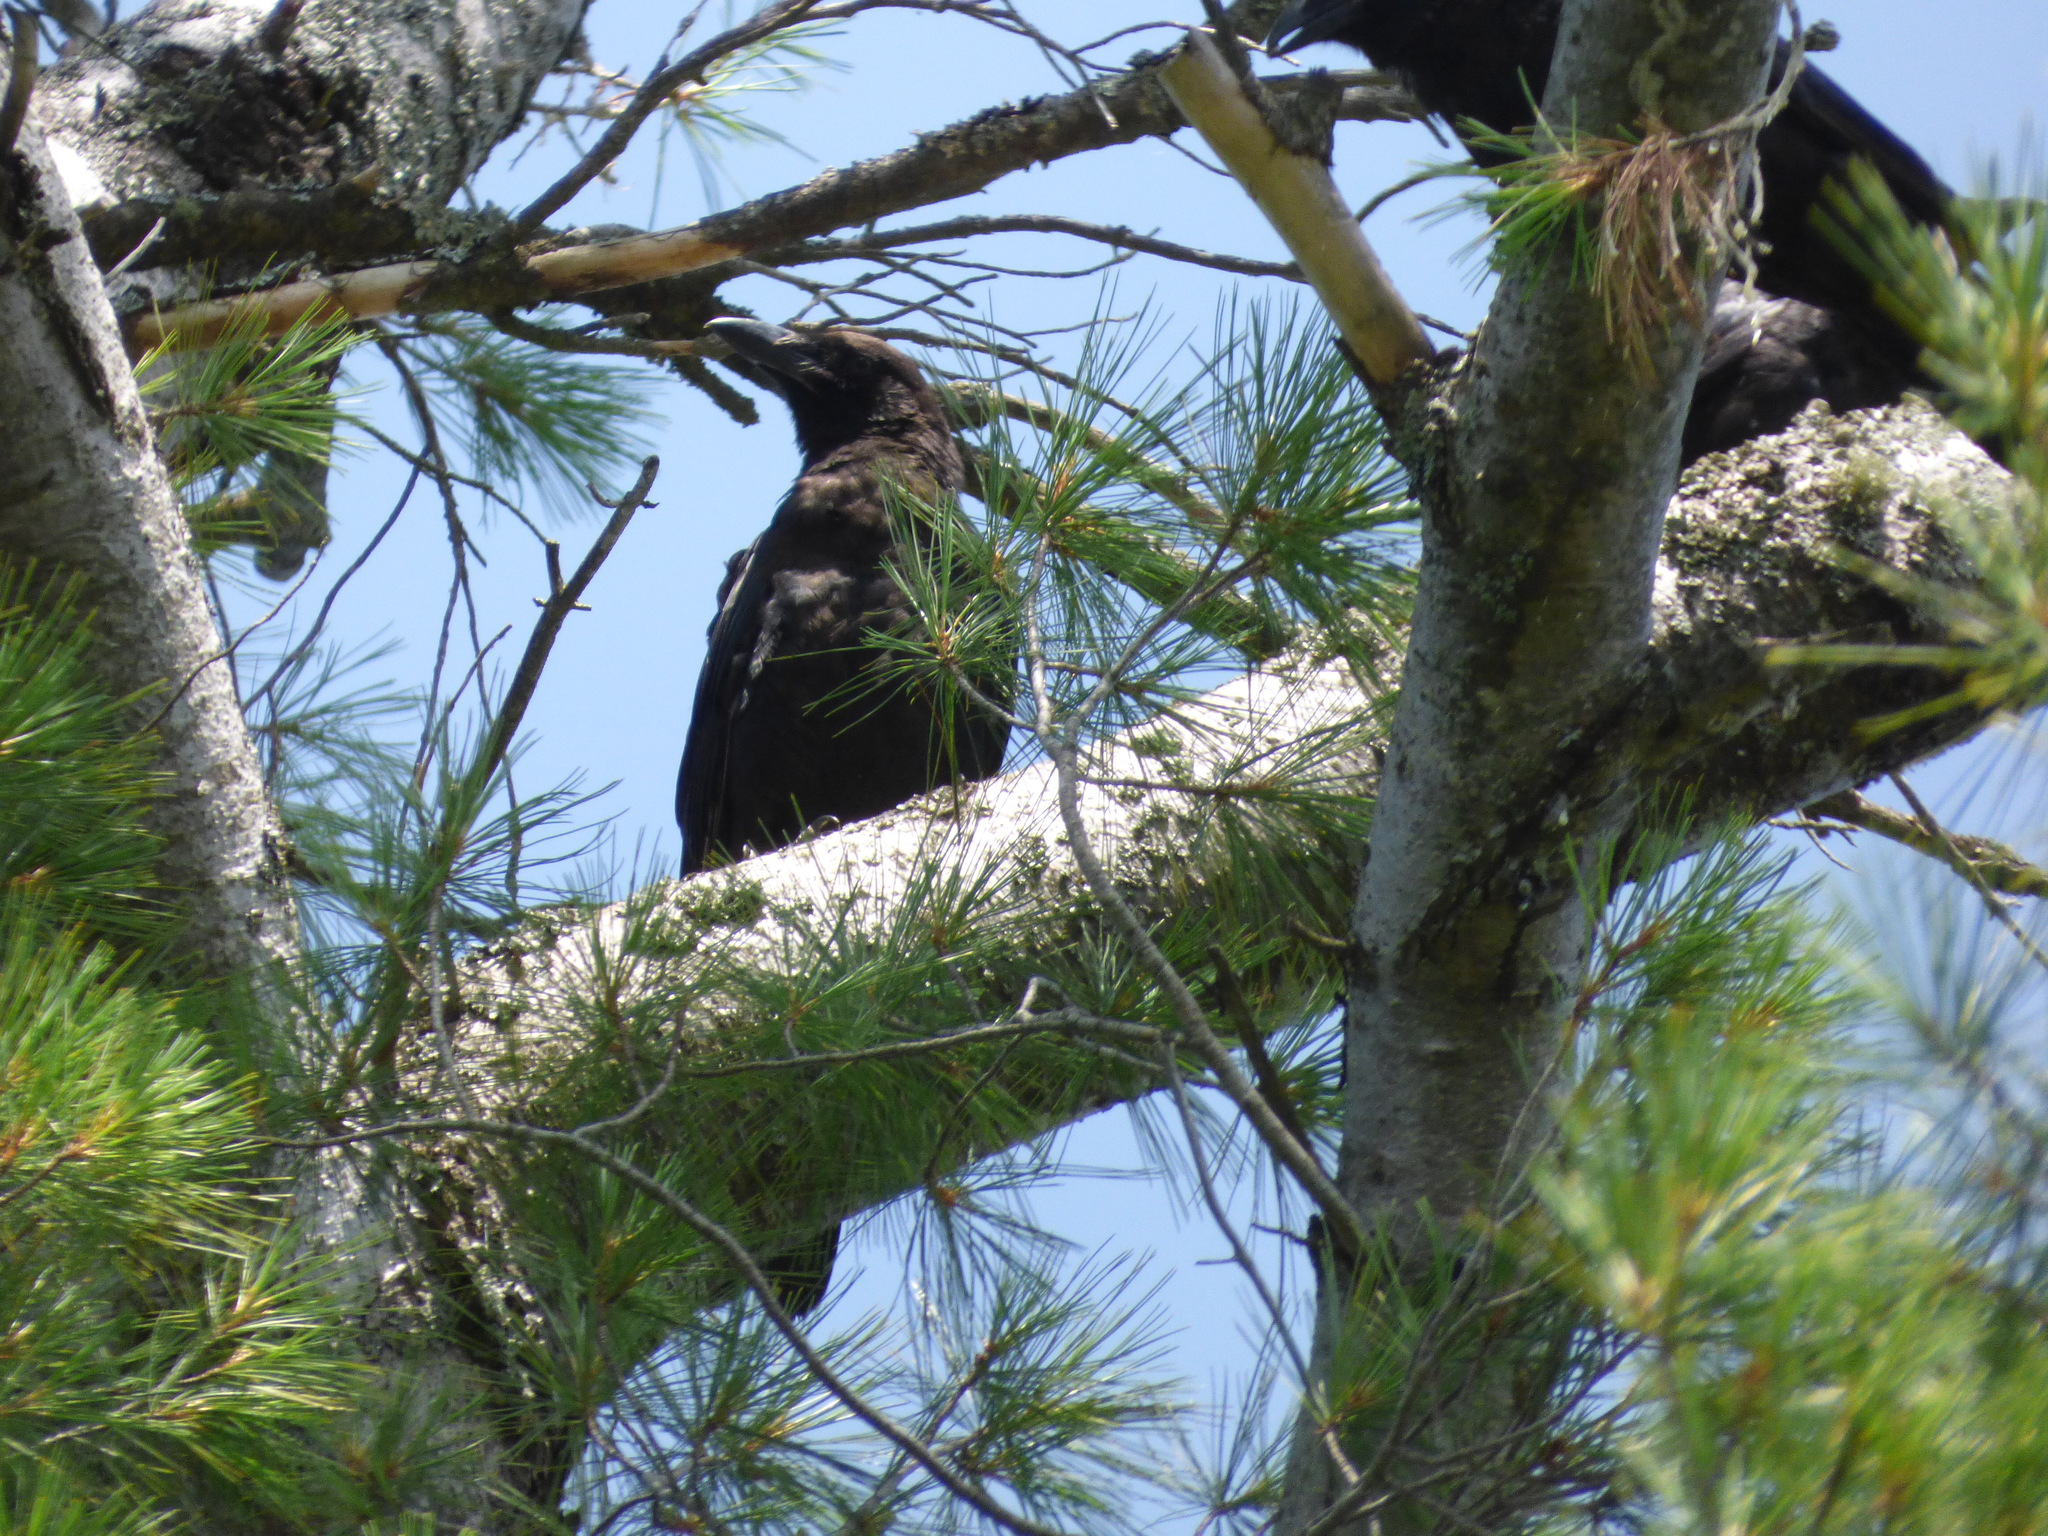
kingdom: Animalia
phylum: Chordata
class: Aves
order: Passeriformes
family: Corvidae
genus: Corvus
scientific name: Corvus brachyrhynchos
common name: American crow
